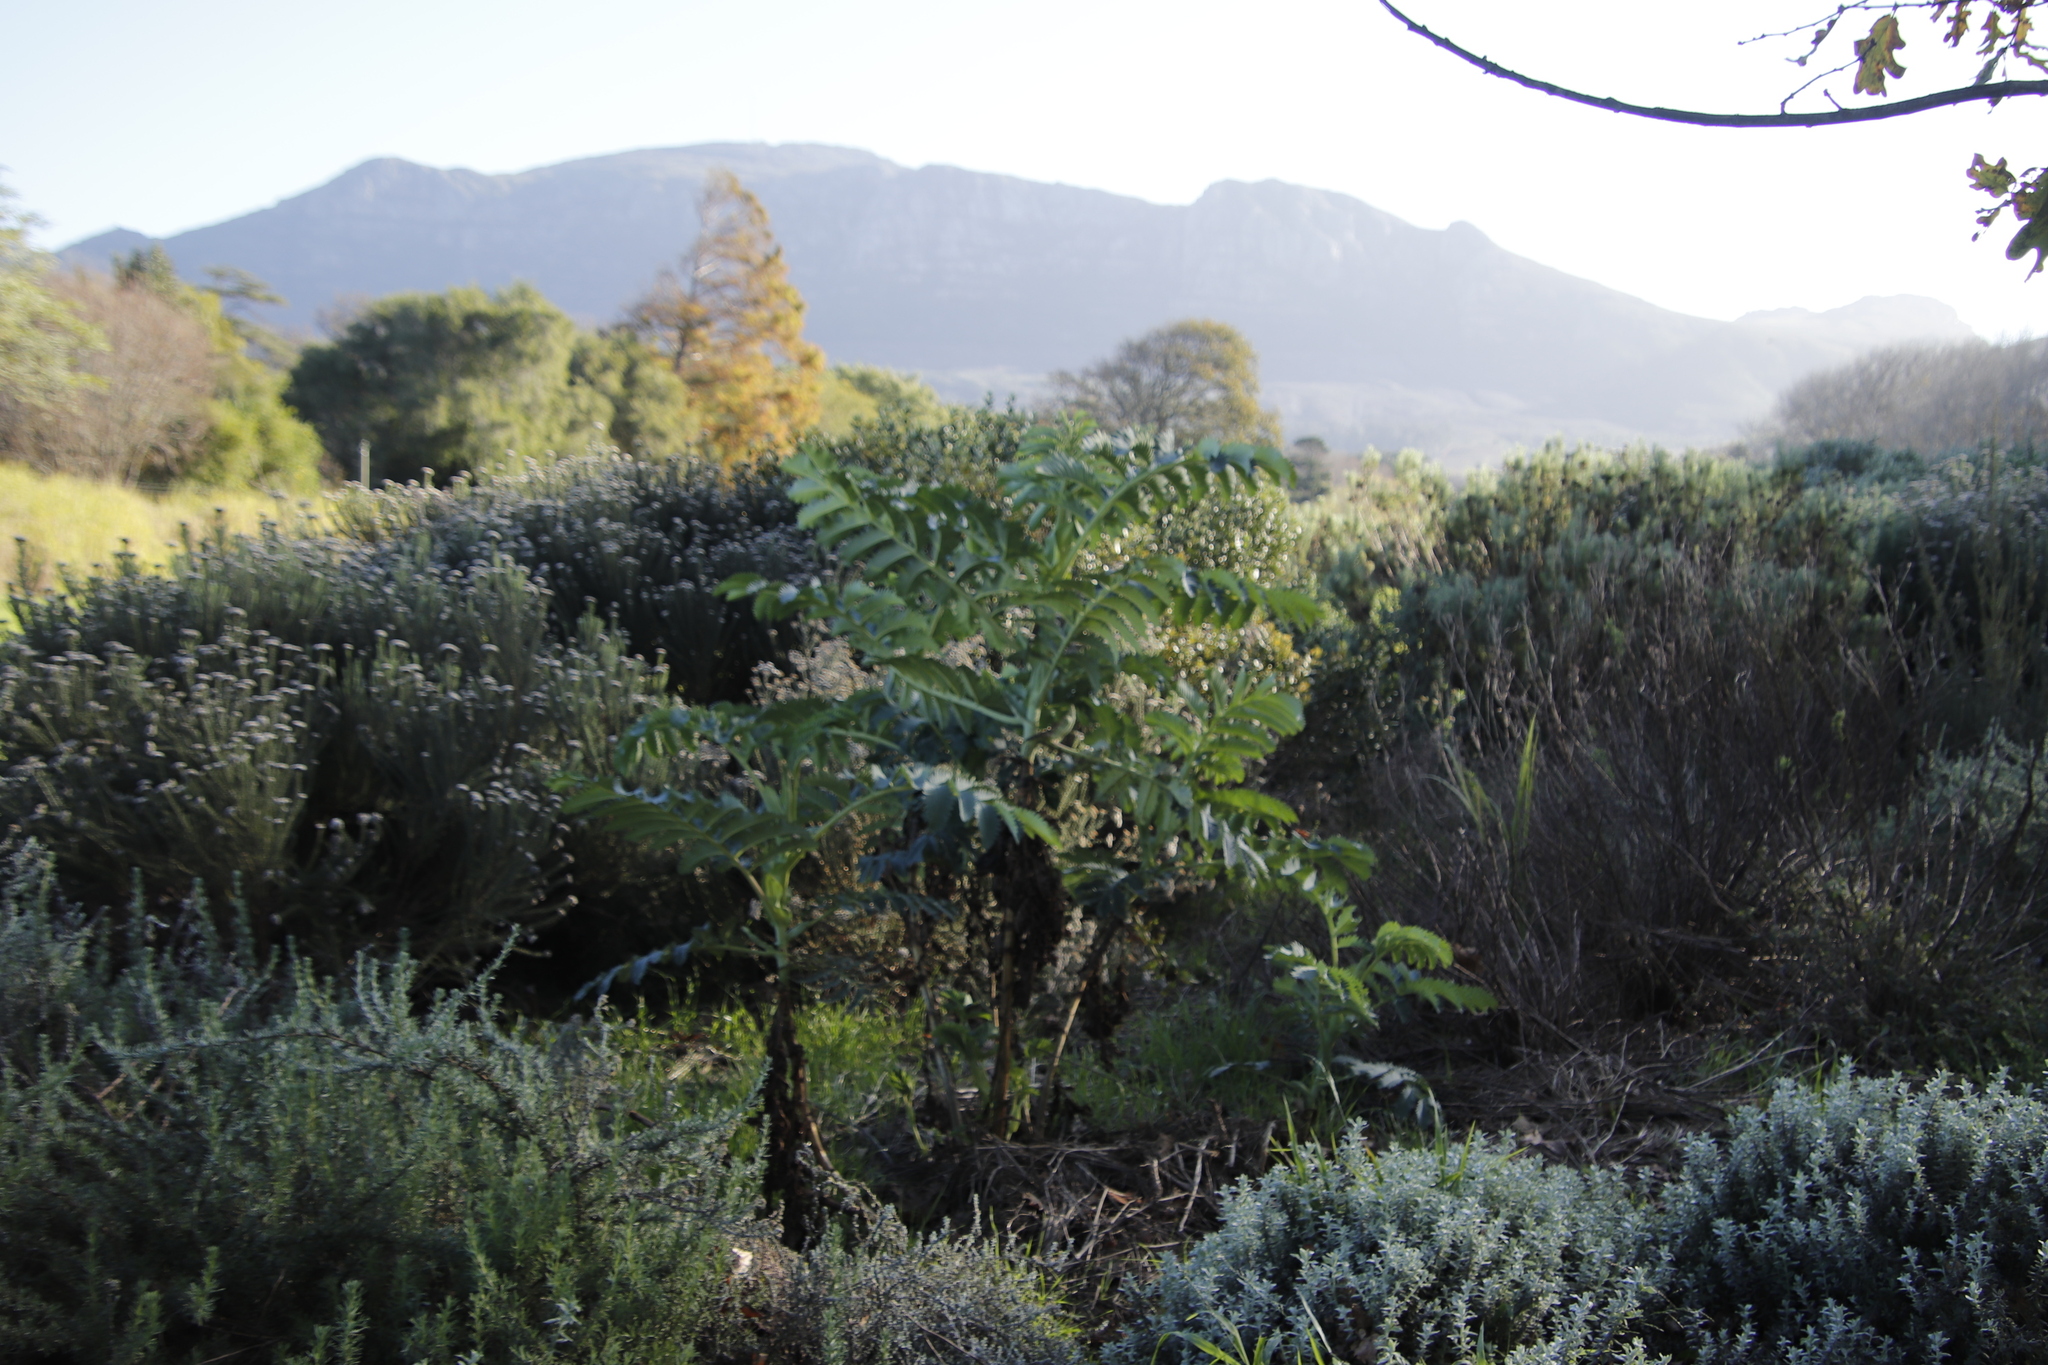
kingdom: Plantae
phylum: Tracheophyta
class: Magnoliopsida
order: Geraniales
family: Melianthaceae
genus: Melianthus
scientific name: Melianthus major
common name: Honey-flower
